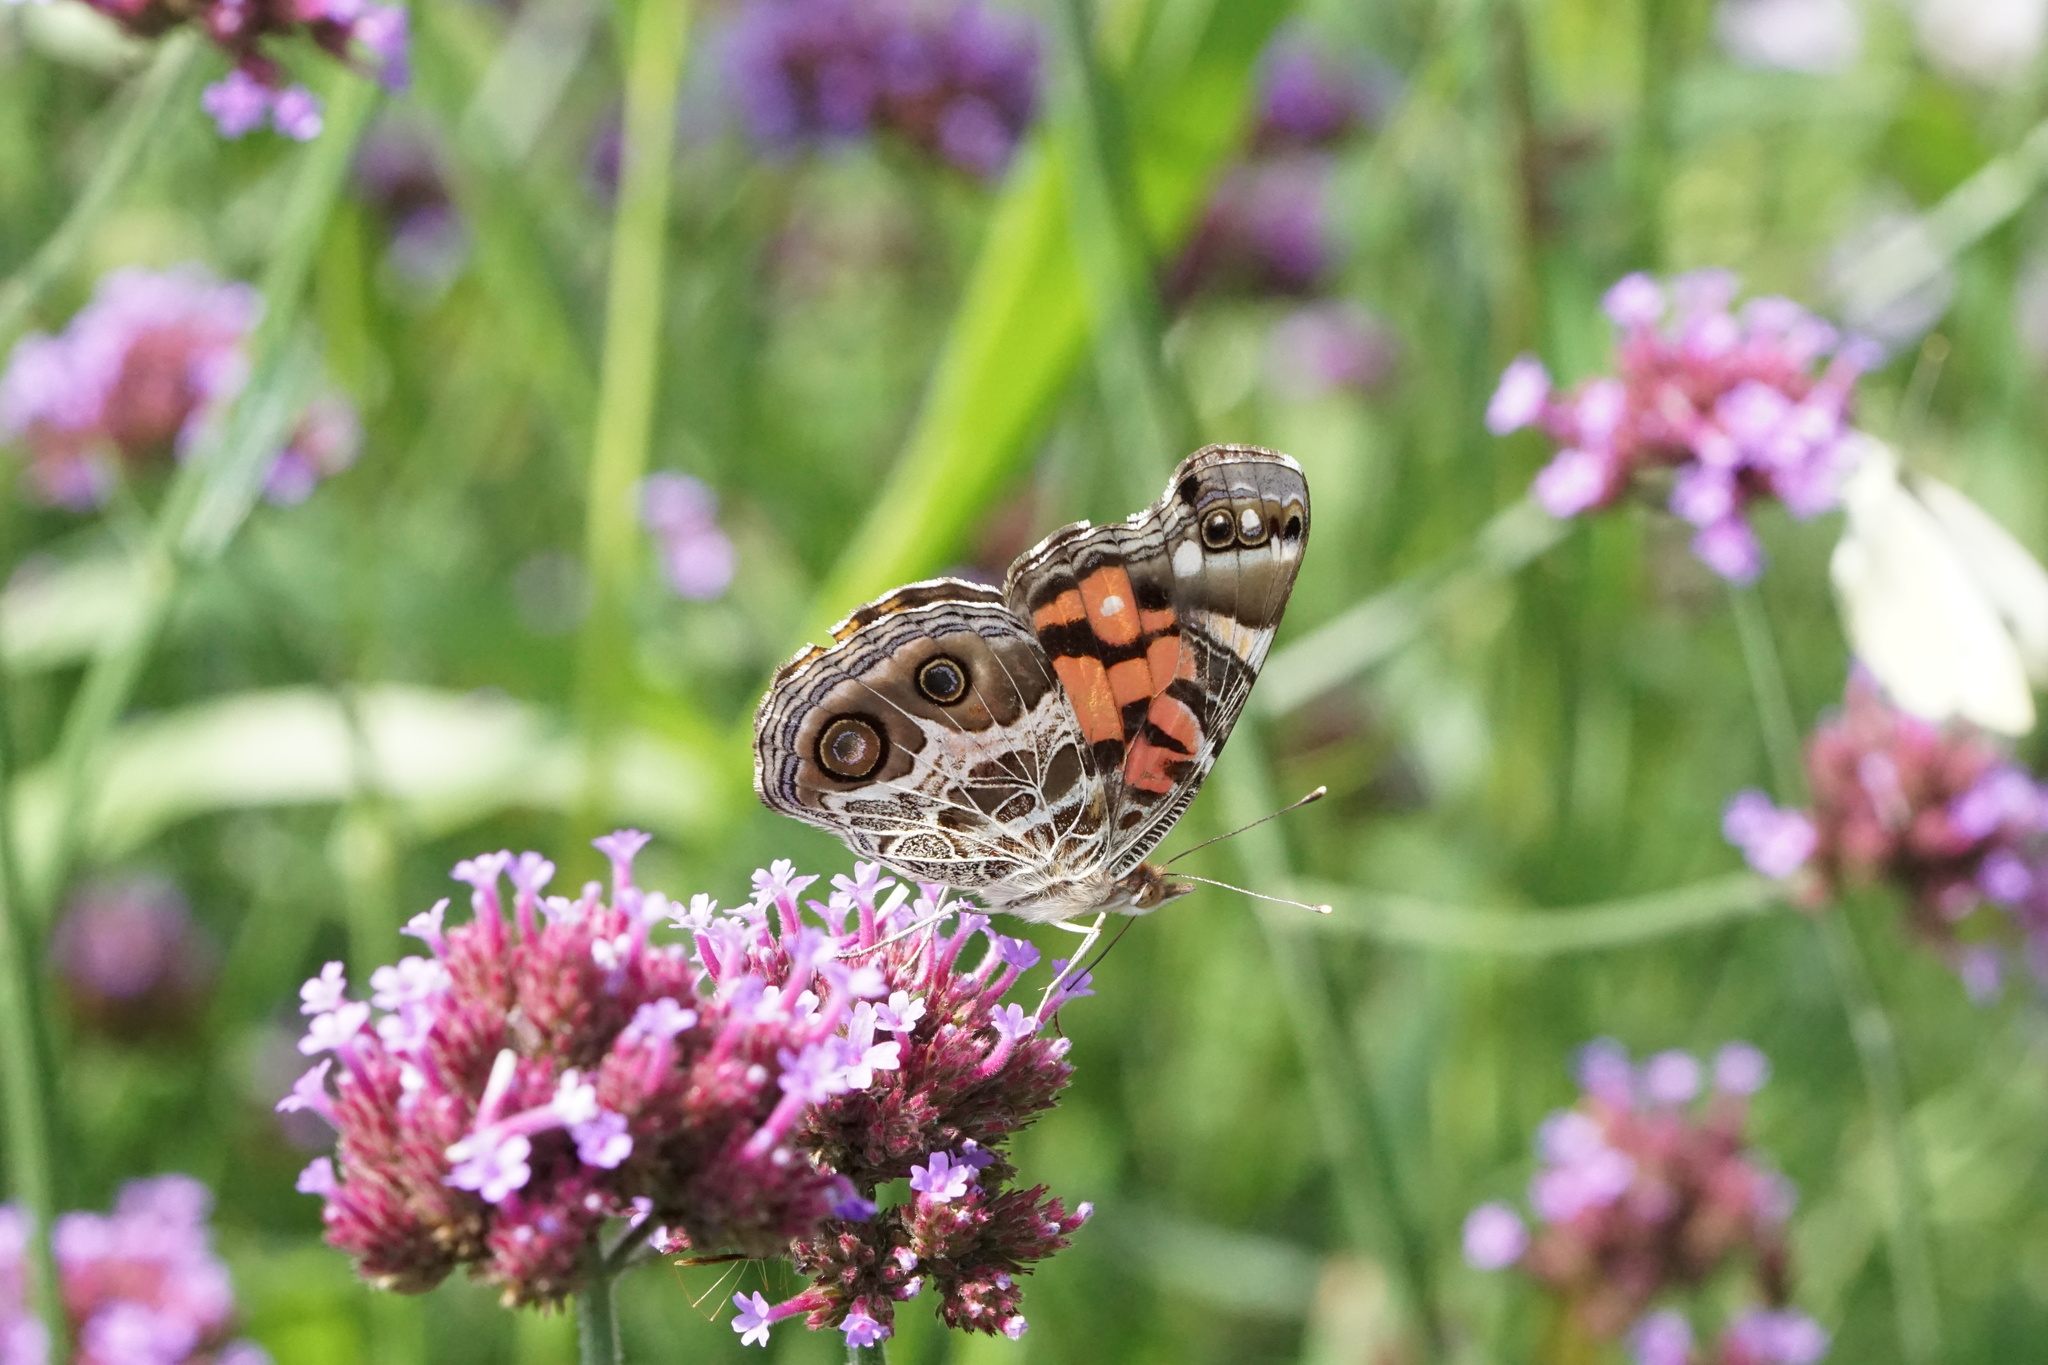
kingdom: Animalia
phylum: Arthropoda
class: Insecta
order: Lepidoptera
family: Nymphalidae
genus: Vanessa
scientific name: Vanessa virginiensis
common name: American lady
